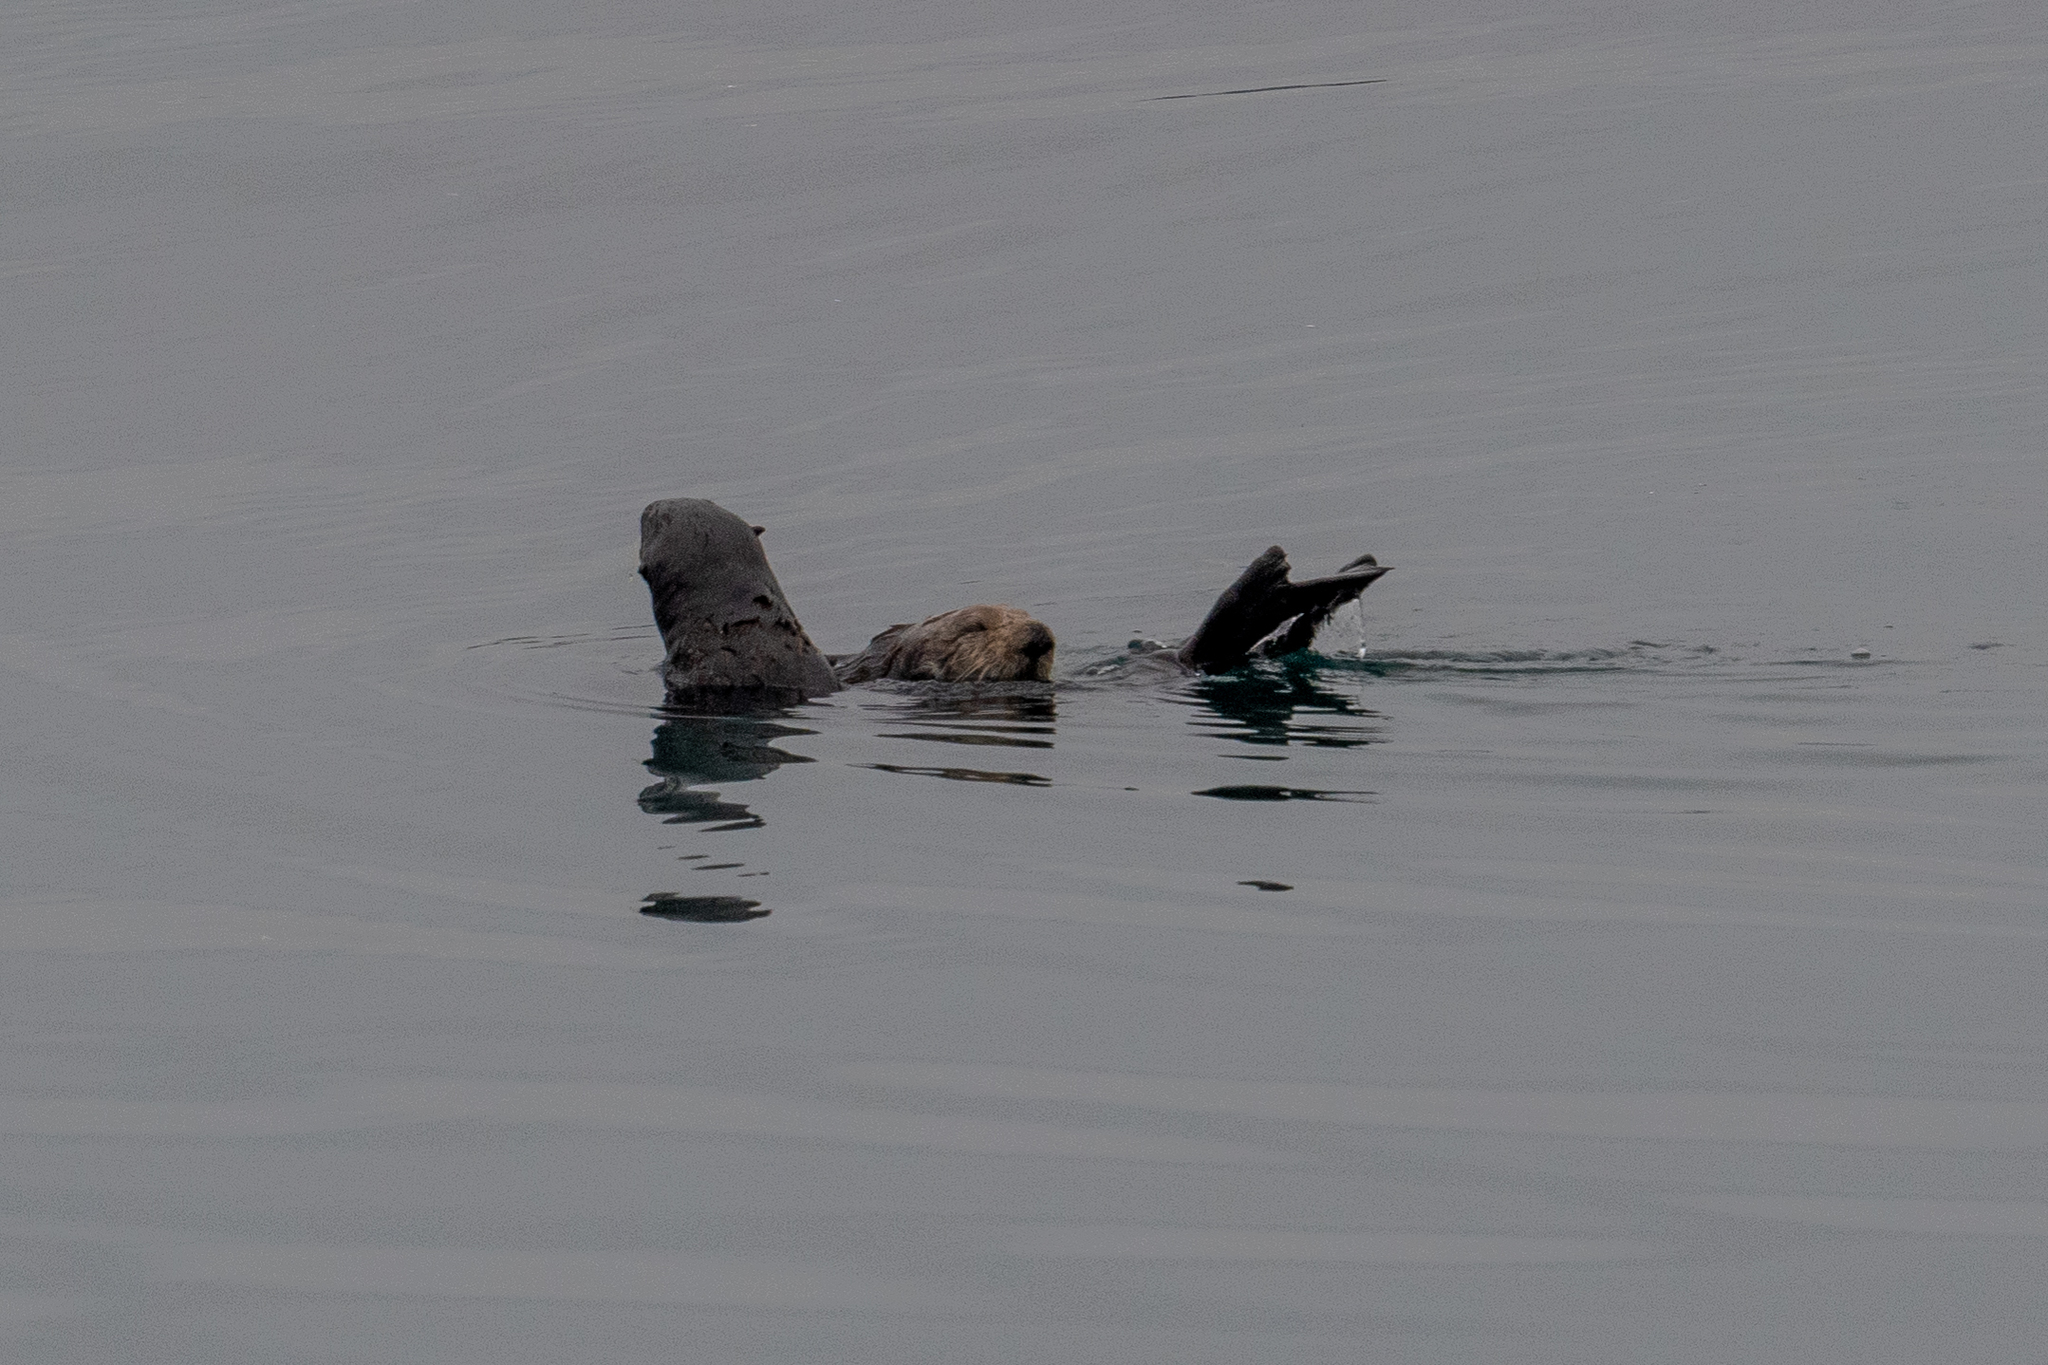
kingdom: Animalia
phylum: Chordata
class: Mammalia
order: Carnivora
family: Mustelidae
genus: Enhydra
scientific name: Enhydra lutris
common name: Sea otter
